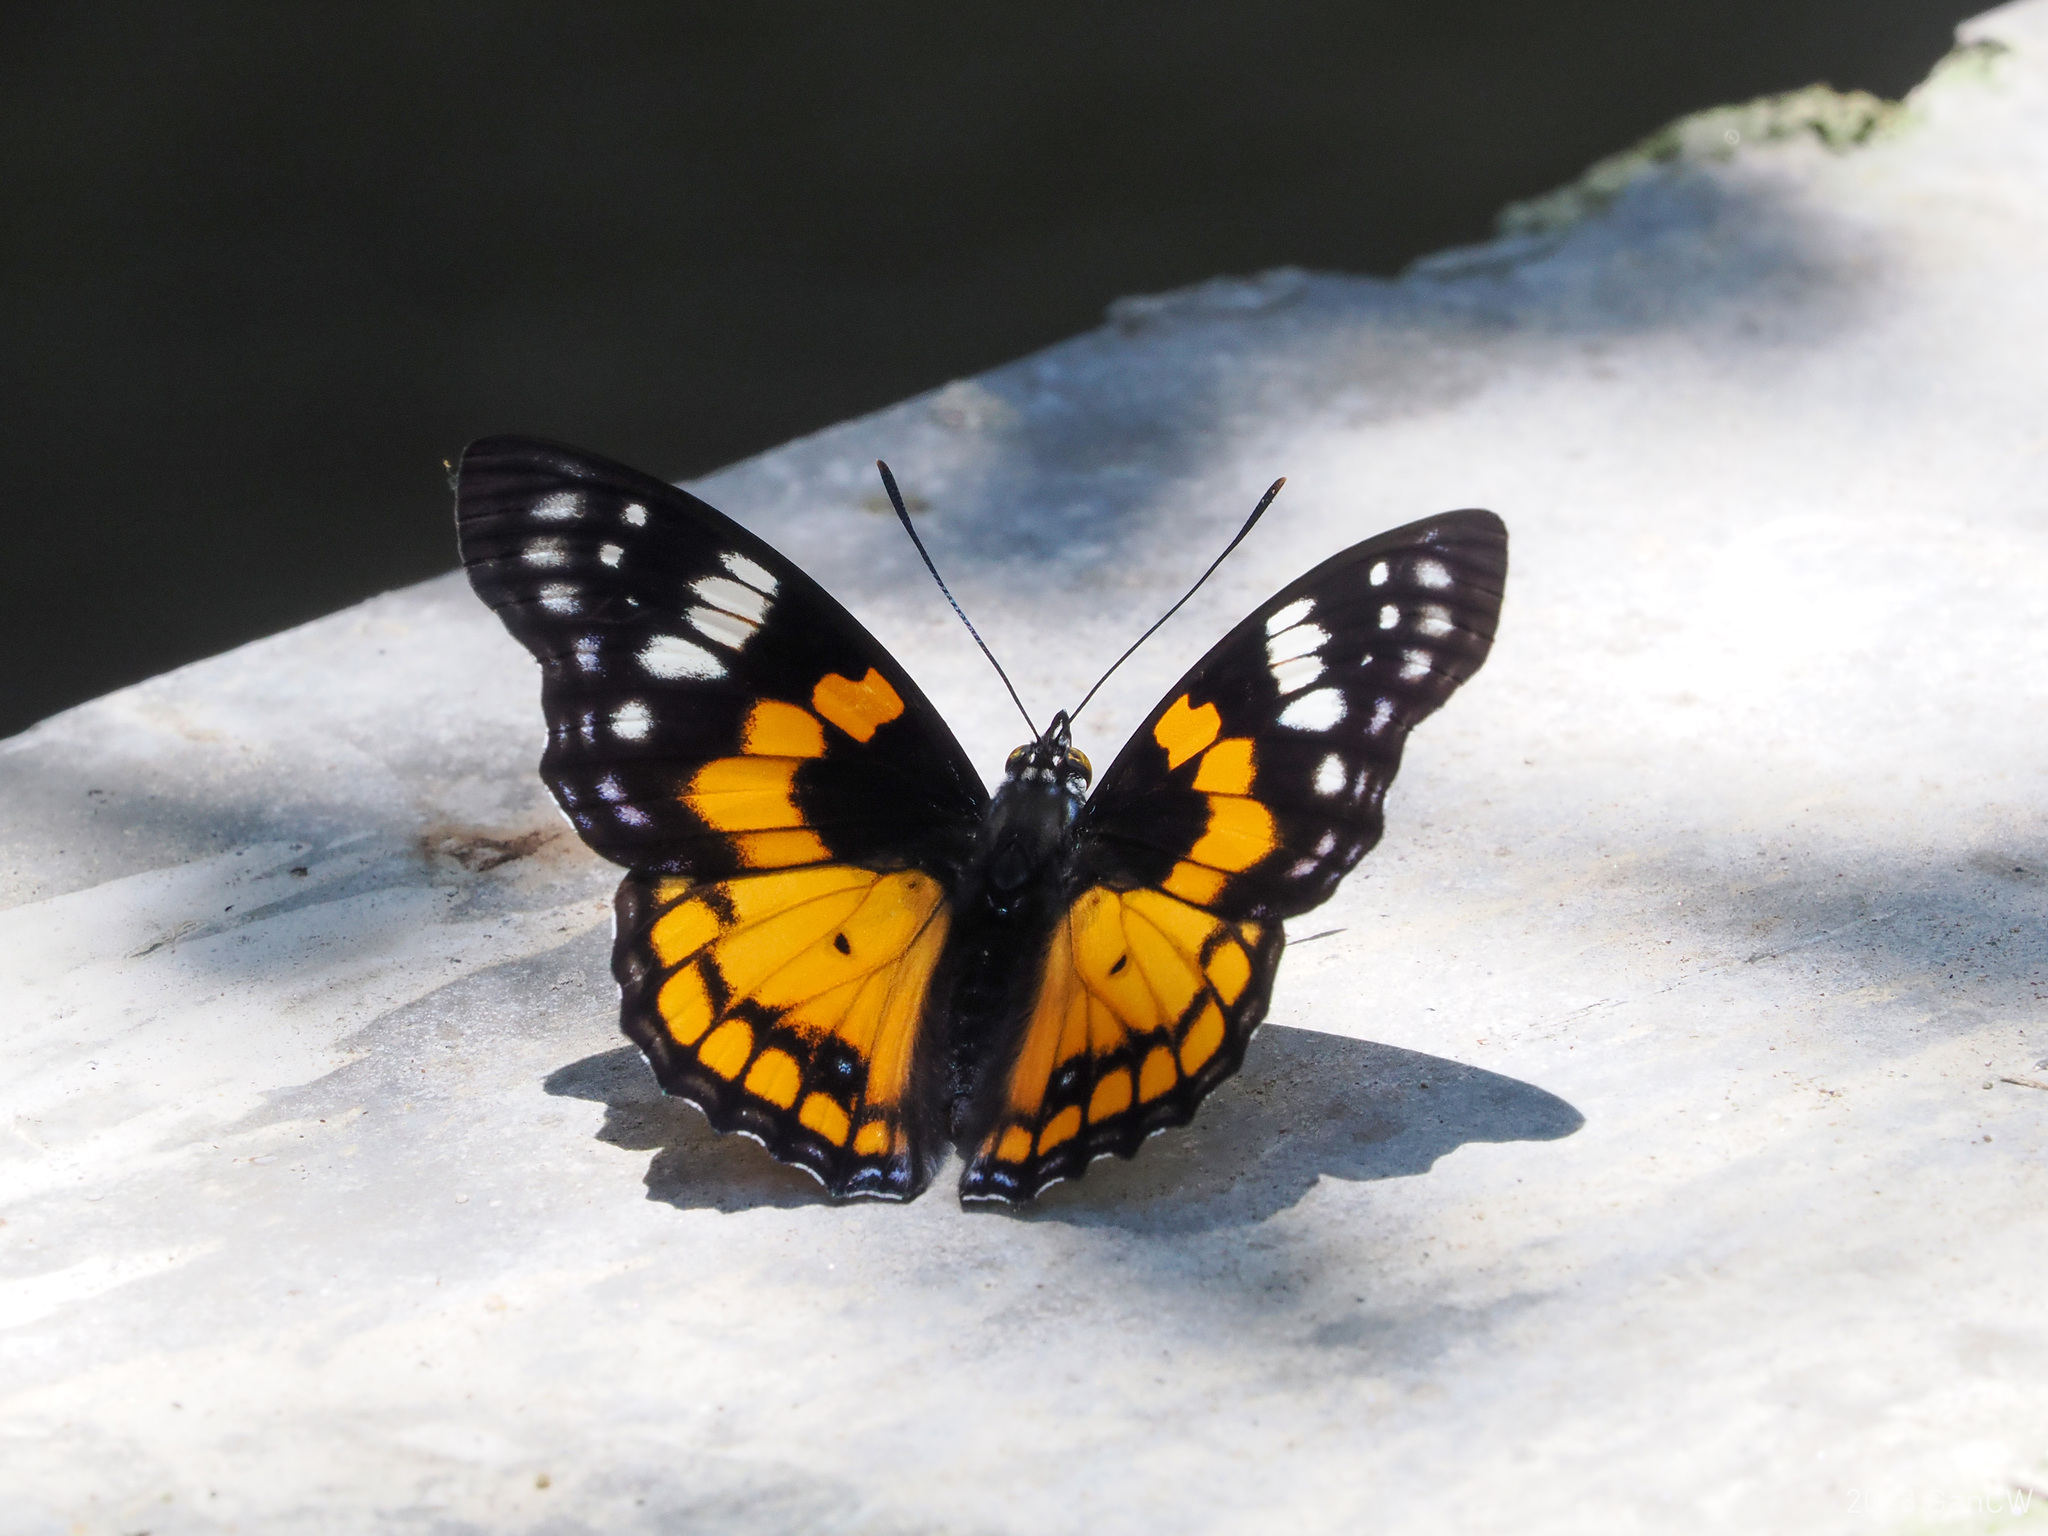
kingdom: Animalia
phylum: Arthropoda
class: Insecta
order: Lepidoptera
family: Nymphalidae
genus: Sephisa
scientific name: Sephisa chandra
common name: Eastern courtier
